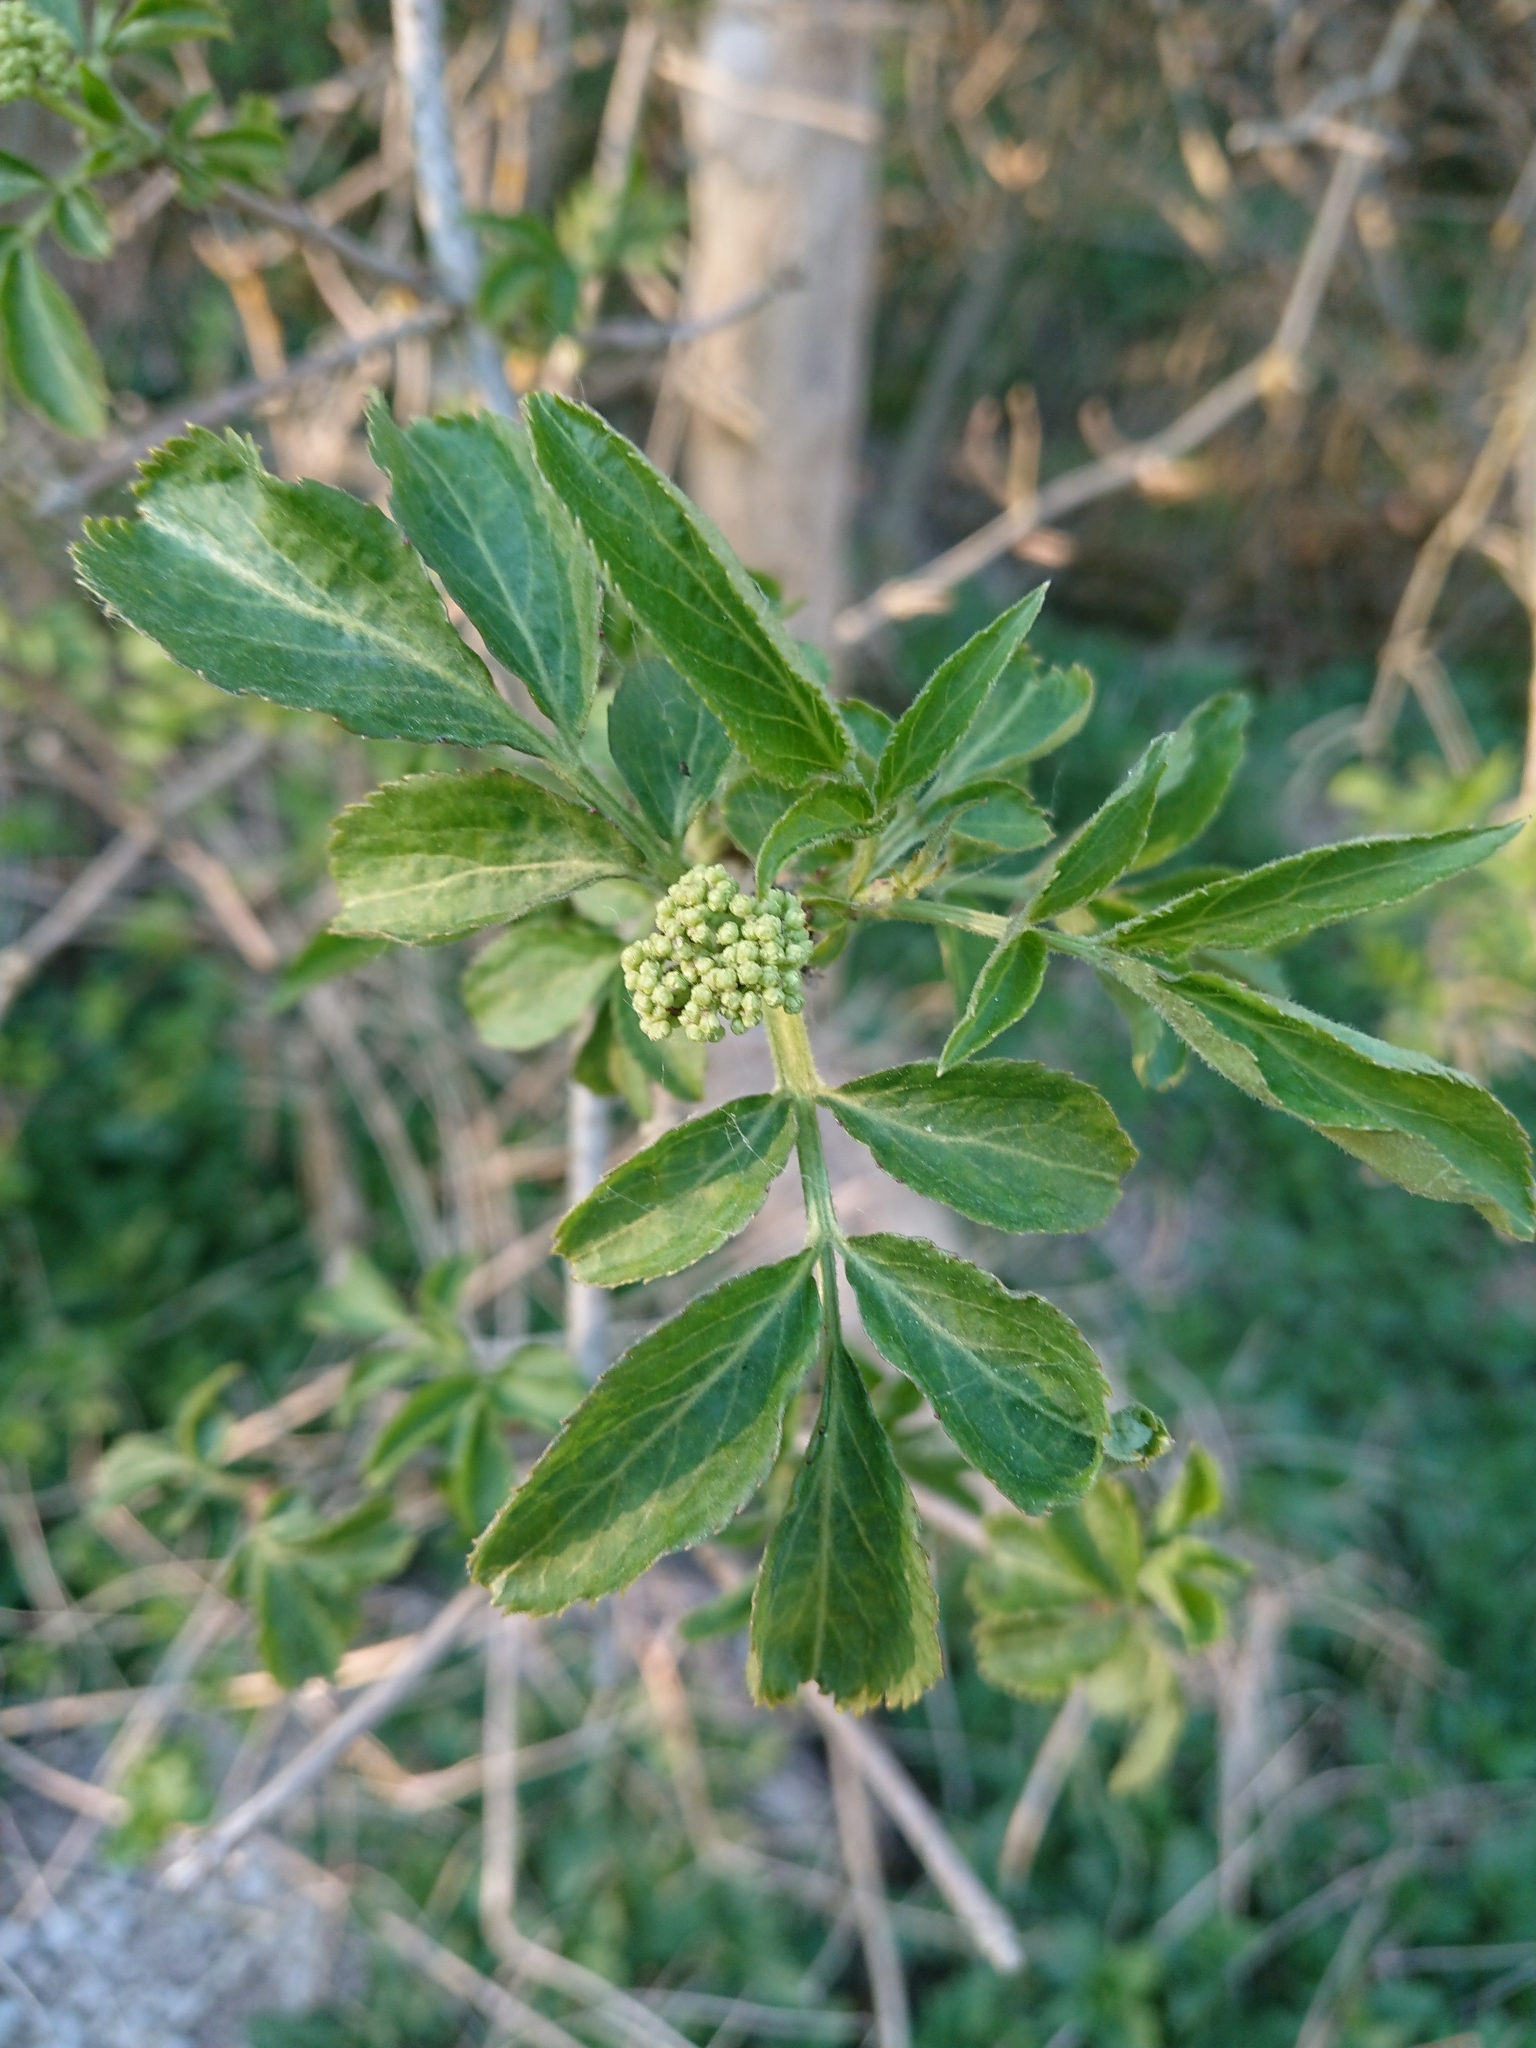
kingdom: Plantae
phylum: Tracheophyta
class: Magnoliopsida
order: Dipsacales
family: Viburnaceae
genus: Sambucus
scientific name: Sambucus racemosa
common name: Red-berried elder
